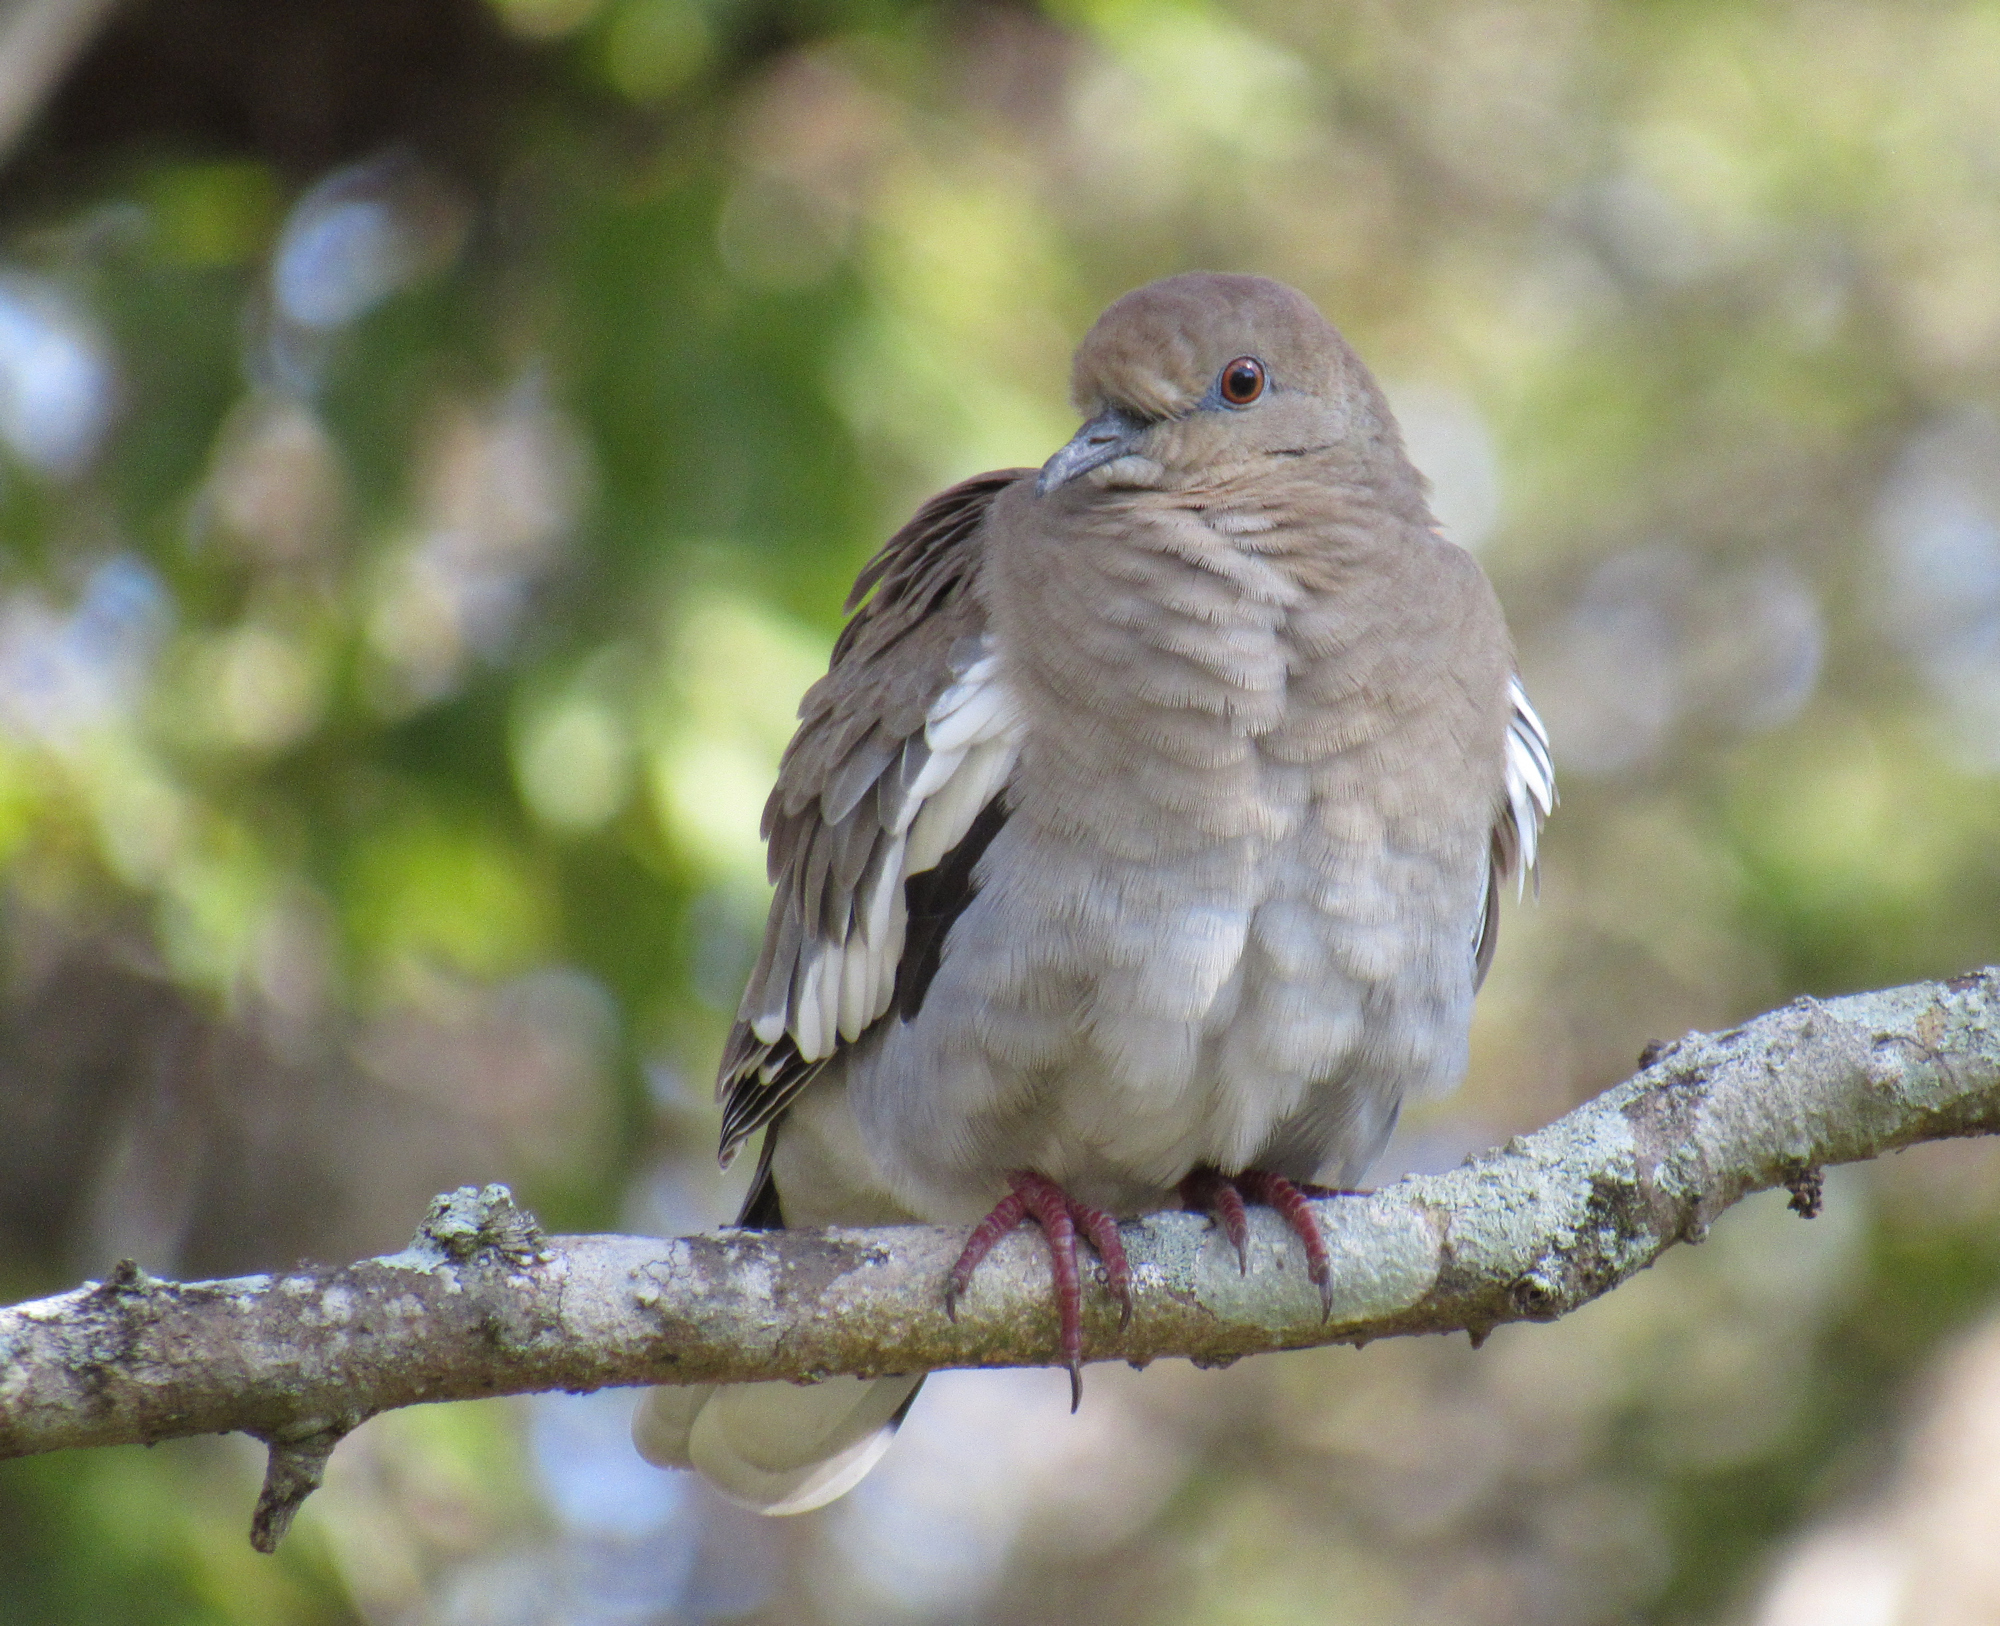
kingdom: Animalia
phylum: Chordata
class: Aves
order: Columbiformes
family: Columbidae
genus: Zenaida
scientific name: Zenaida asiatica
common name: White-winged dove
